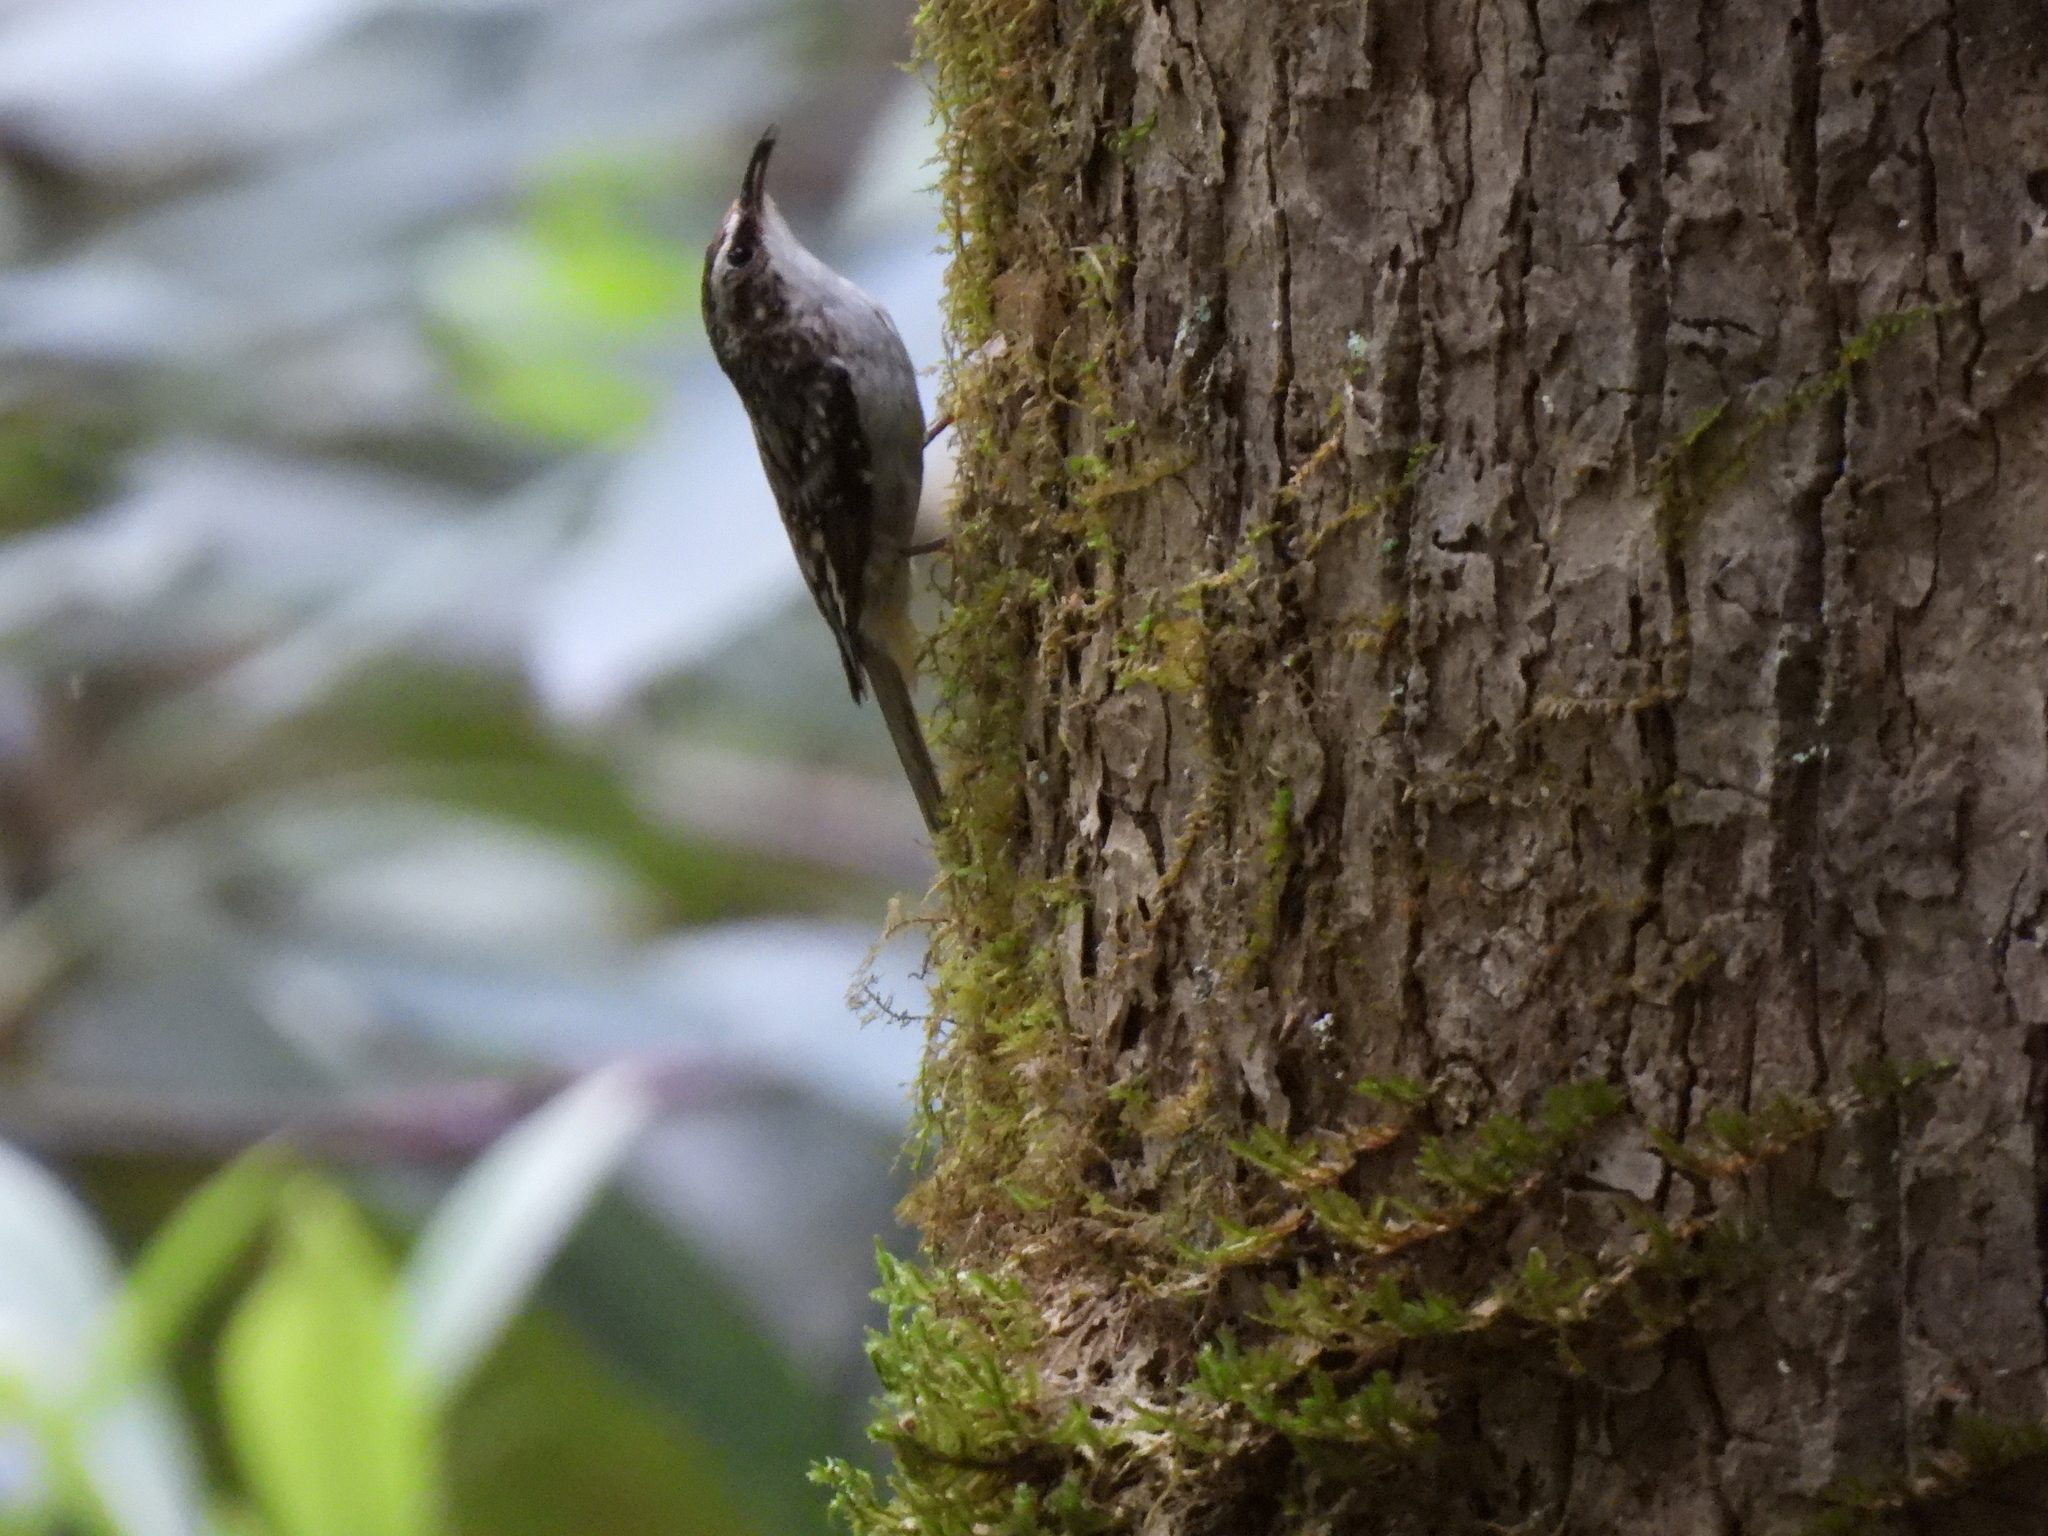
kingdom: Animalia
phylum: Chordata
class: Aves
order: Passeriformes
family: Certhiidae
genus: Certhia
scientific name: Certhia americana
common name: Brown creeper
